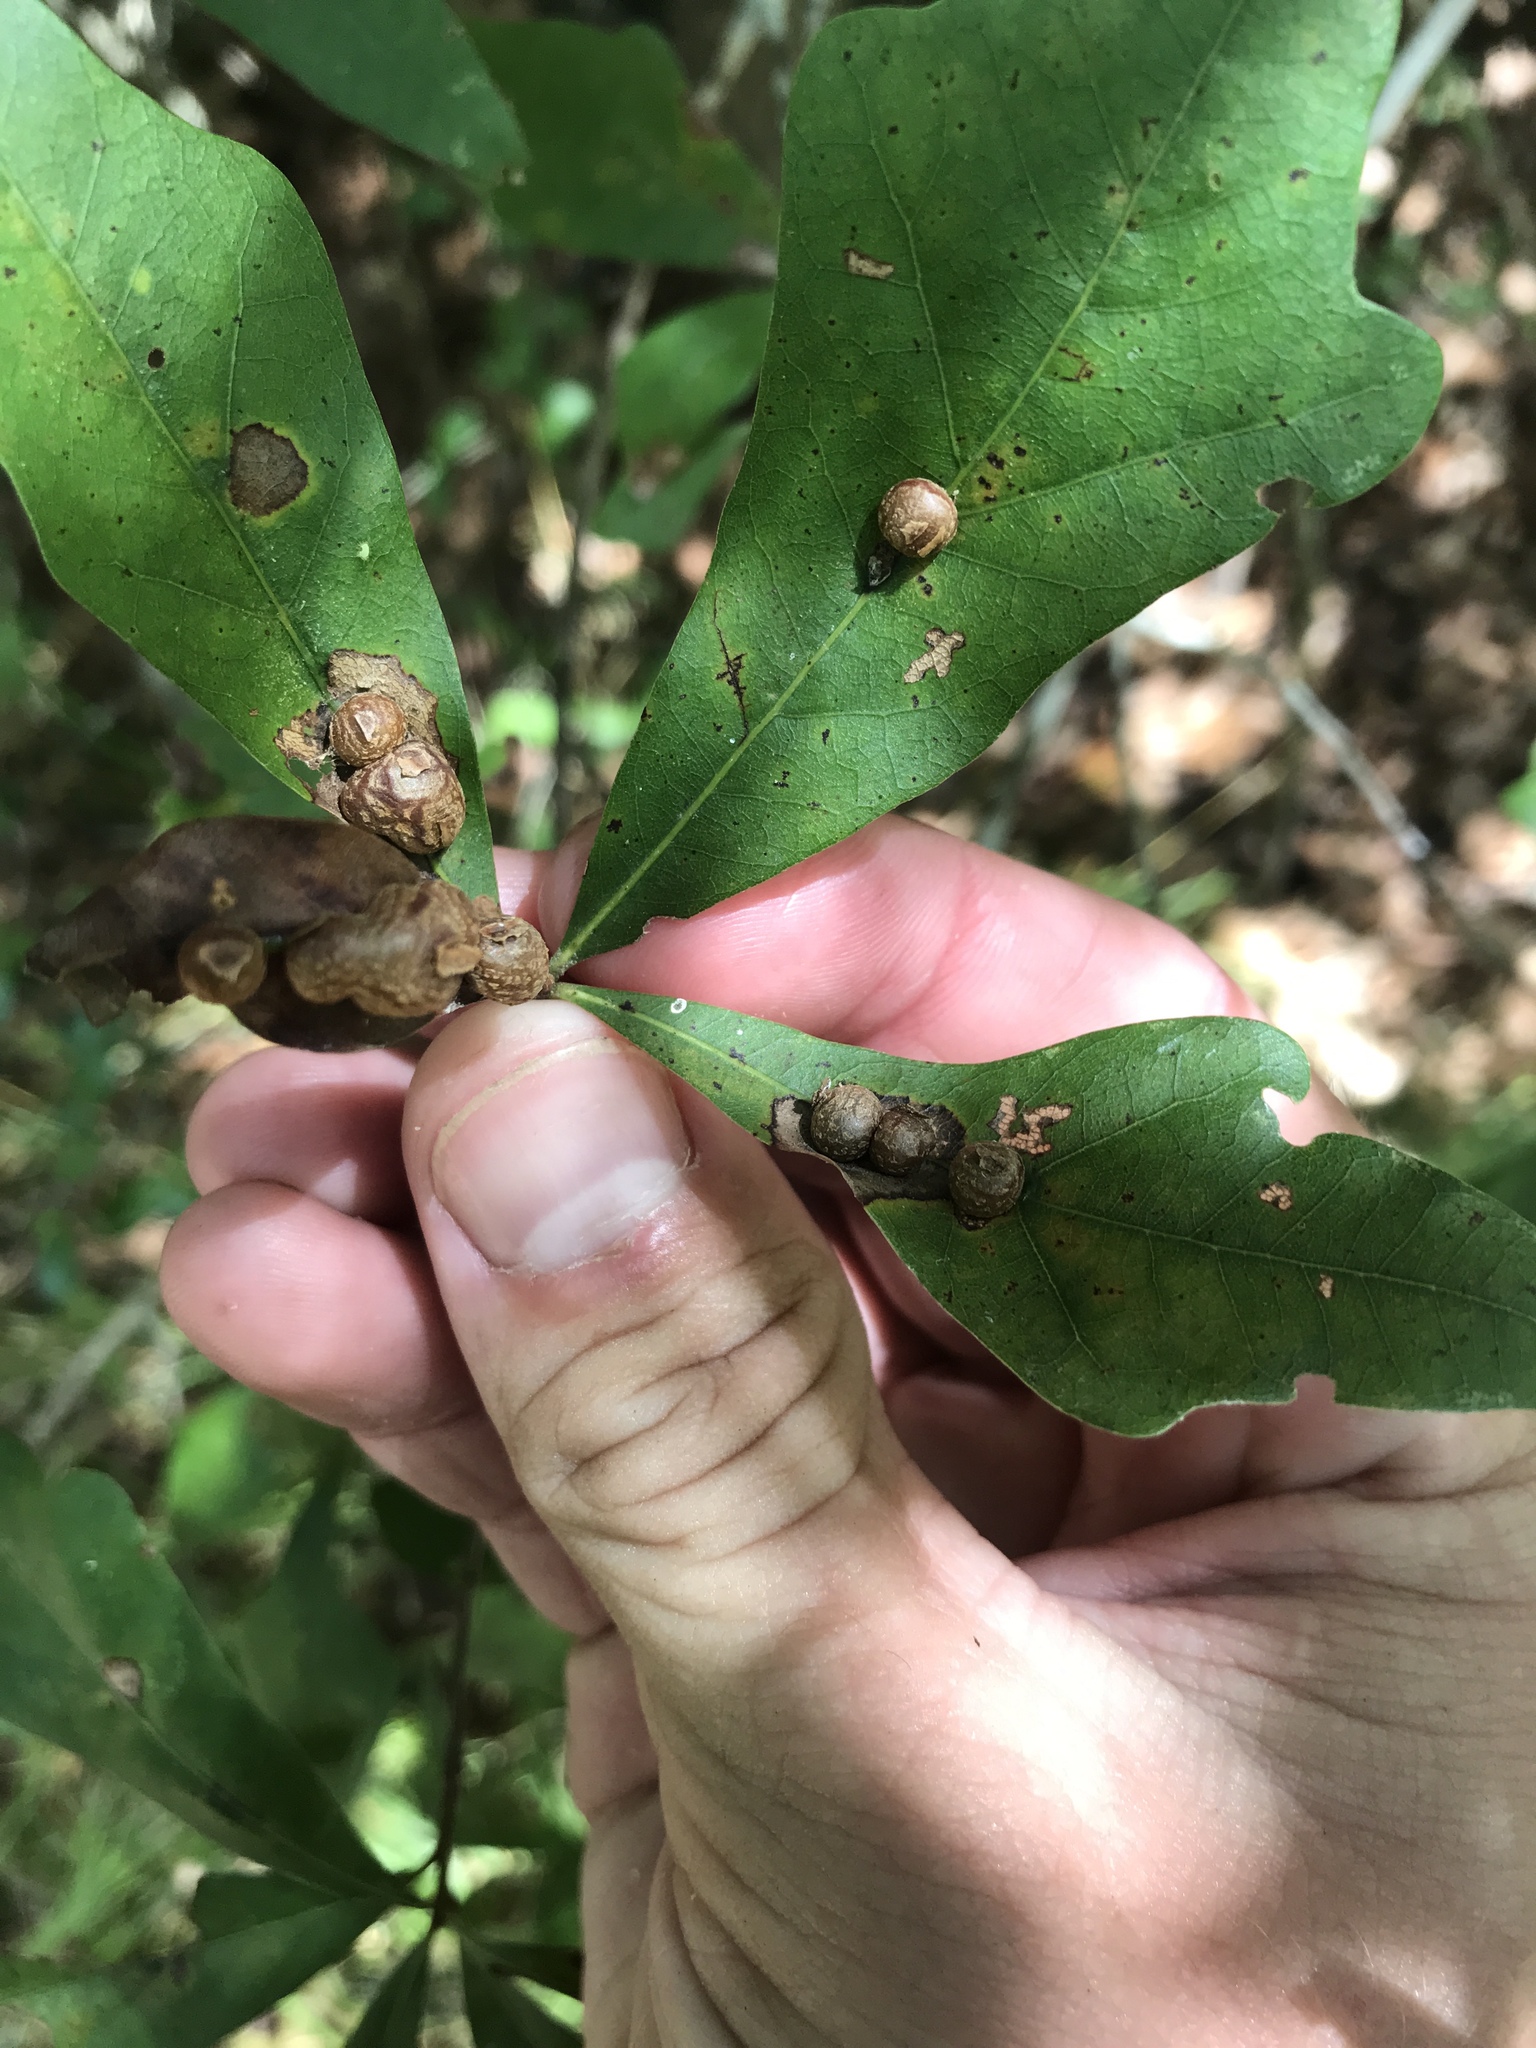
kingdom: Animalia
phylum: Arthropoda
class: Insecta
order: Diptera
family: Cecidomyiidae
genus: Polystepha
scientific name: Polystepha pilulae
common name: Oak leaf gall midge
